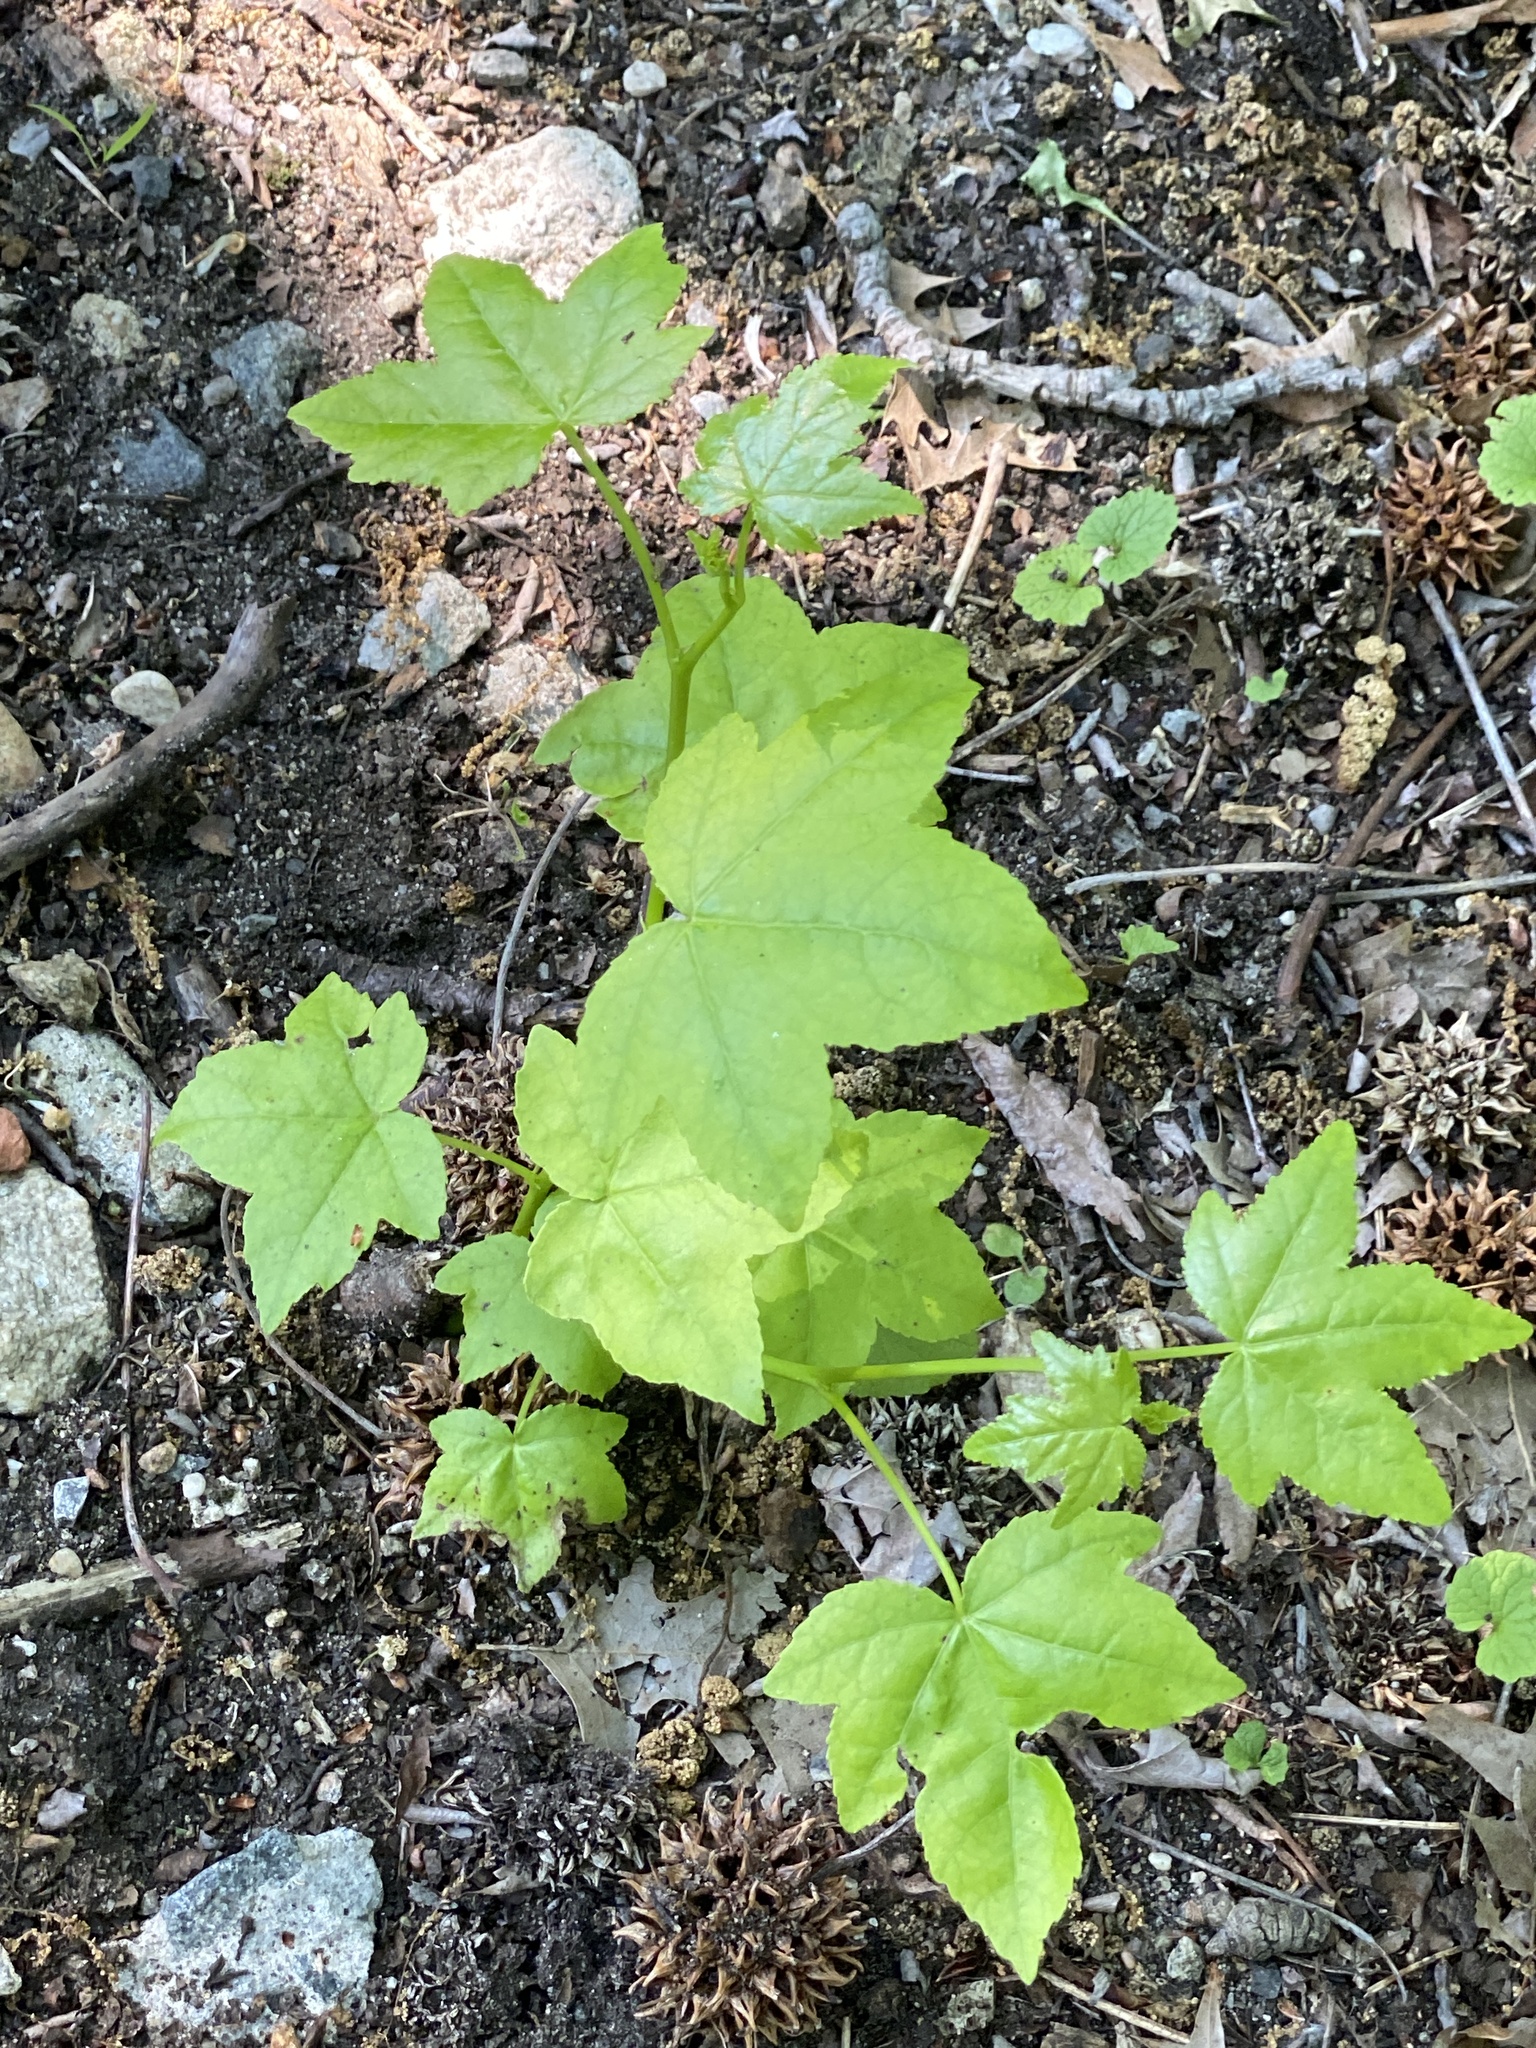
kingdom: Plantae
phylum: Tracheophyta
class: Magnoliopsida
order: Saxifragales
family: Altingiaceae
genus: Liquidambar
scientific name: Liquidambar styraciflua
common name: Sweet gum
